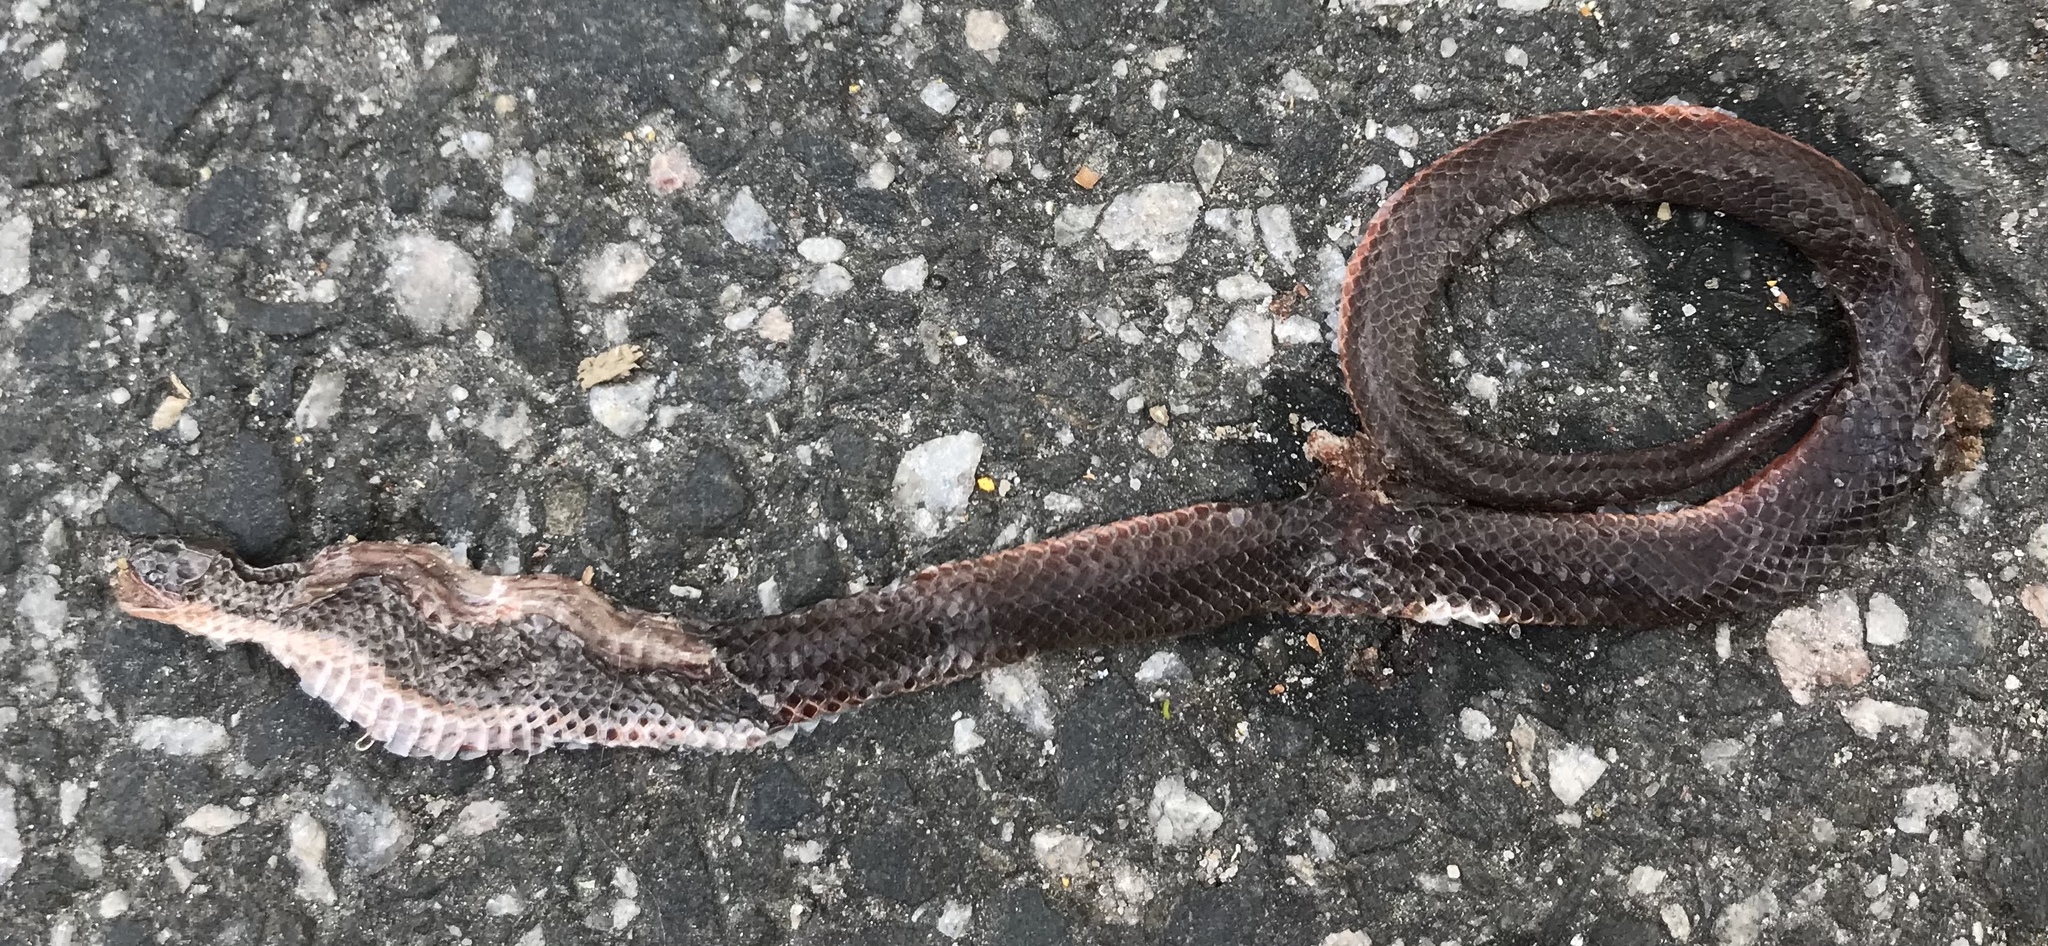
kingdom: Animalia
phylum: Chordata
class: Squamata
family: Colubridae
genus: Carphophis
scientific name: Carphophis amoenus
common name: Eastern worm snake
